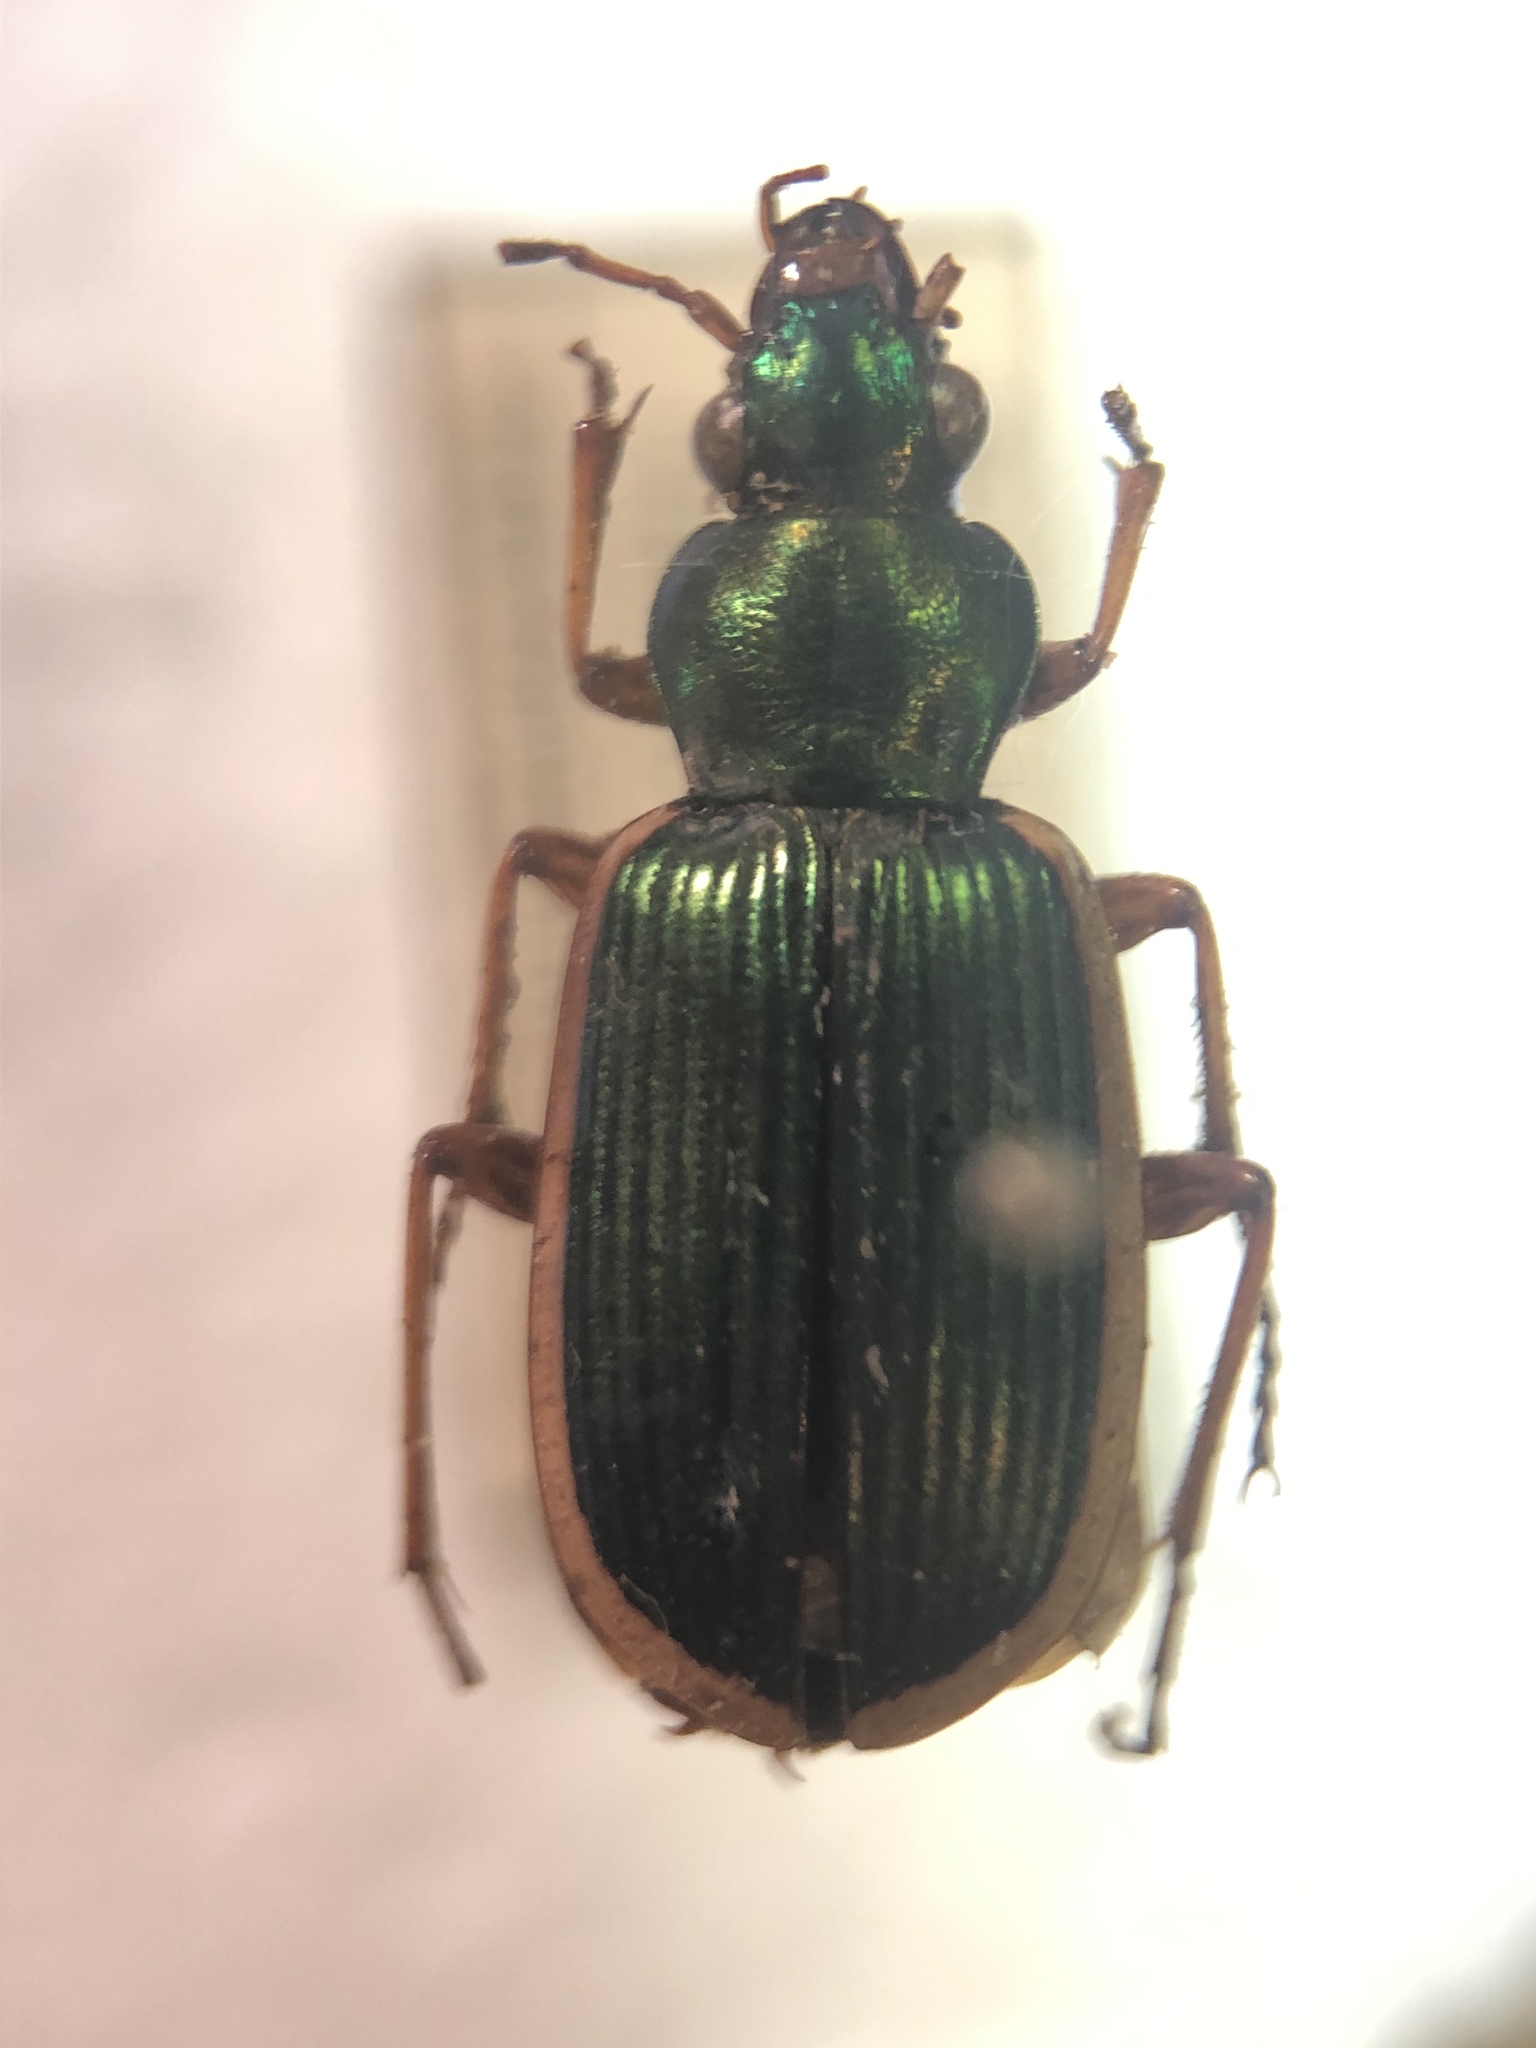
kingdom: Animalia
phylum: Arthropoda
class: Insecta
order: Coleoptera
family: Carabidae
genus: Chlaenius
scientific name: Chlaenius spoliatus
